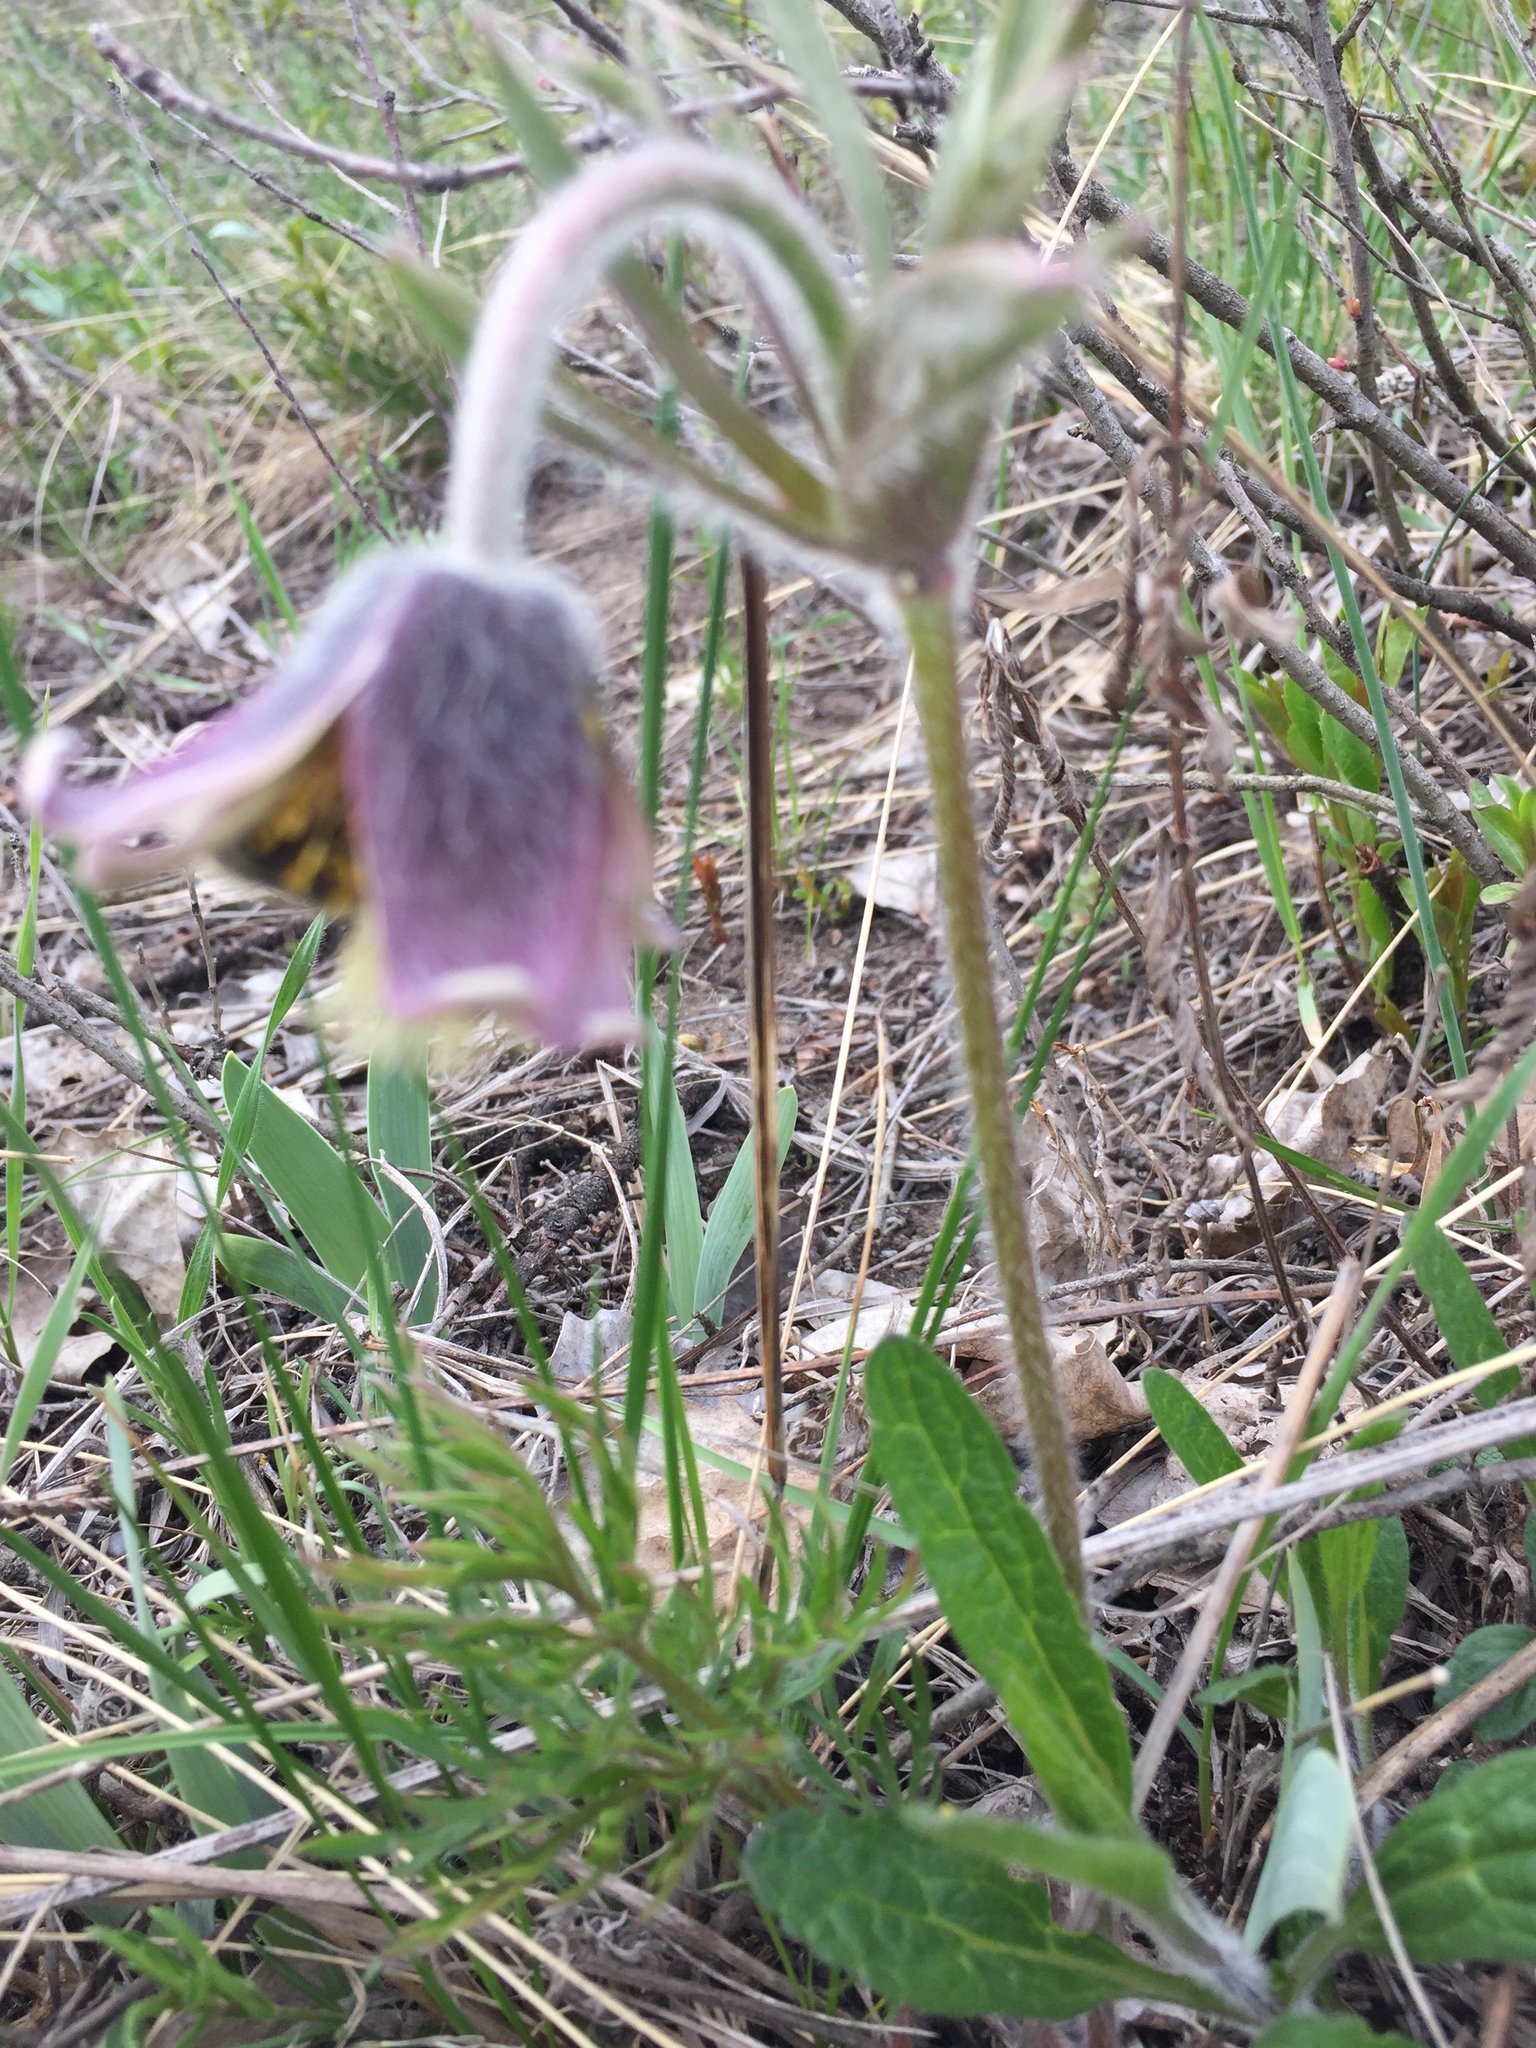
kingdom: Plantae
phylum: Tracheophyta
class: Magnoliopsida
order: Ranunculales
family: Ranunculaceae
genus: Pulsatilla
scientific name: Pulsatilla pratensis
